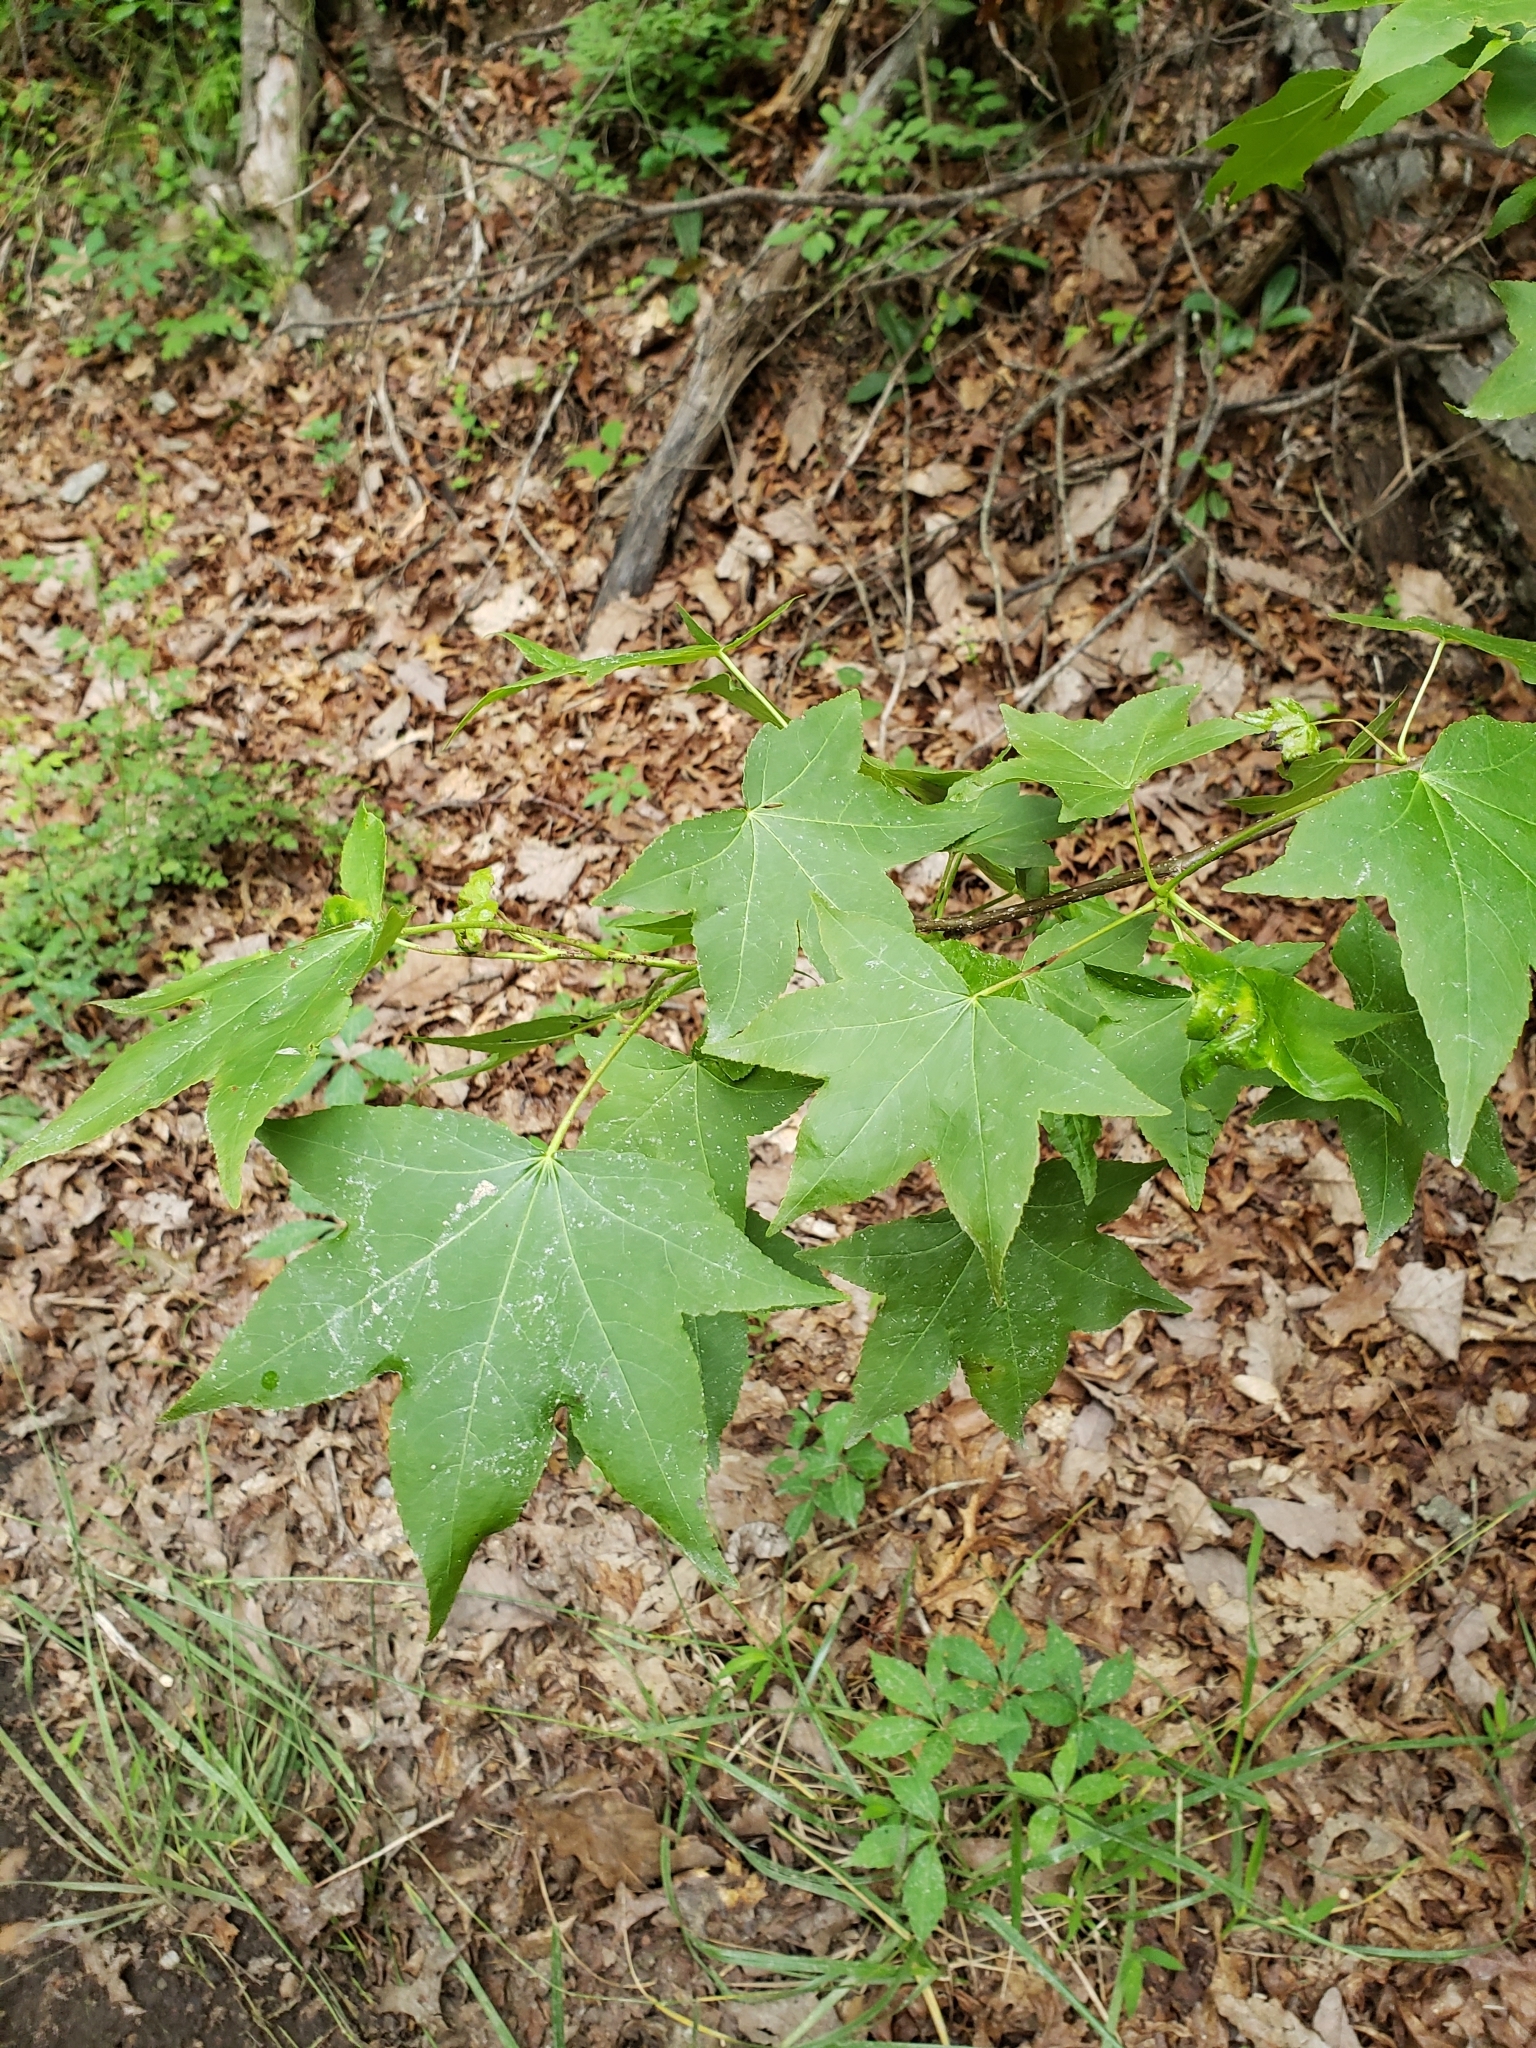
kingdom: Plantae
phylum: Tracheophyta
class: Magnoliopsida
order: Saxifragales
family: Altingiaceae
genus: Liquidambar
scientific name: Liquidambar styraciflua
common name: Sweet gum
